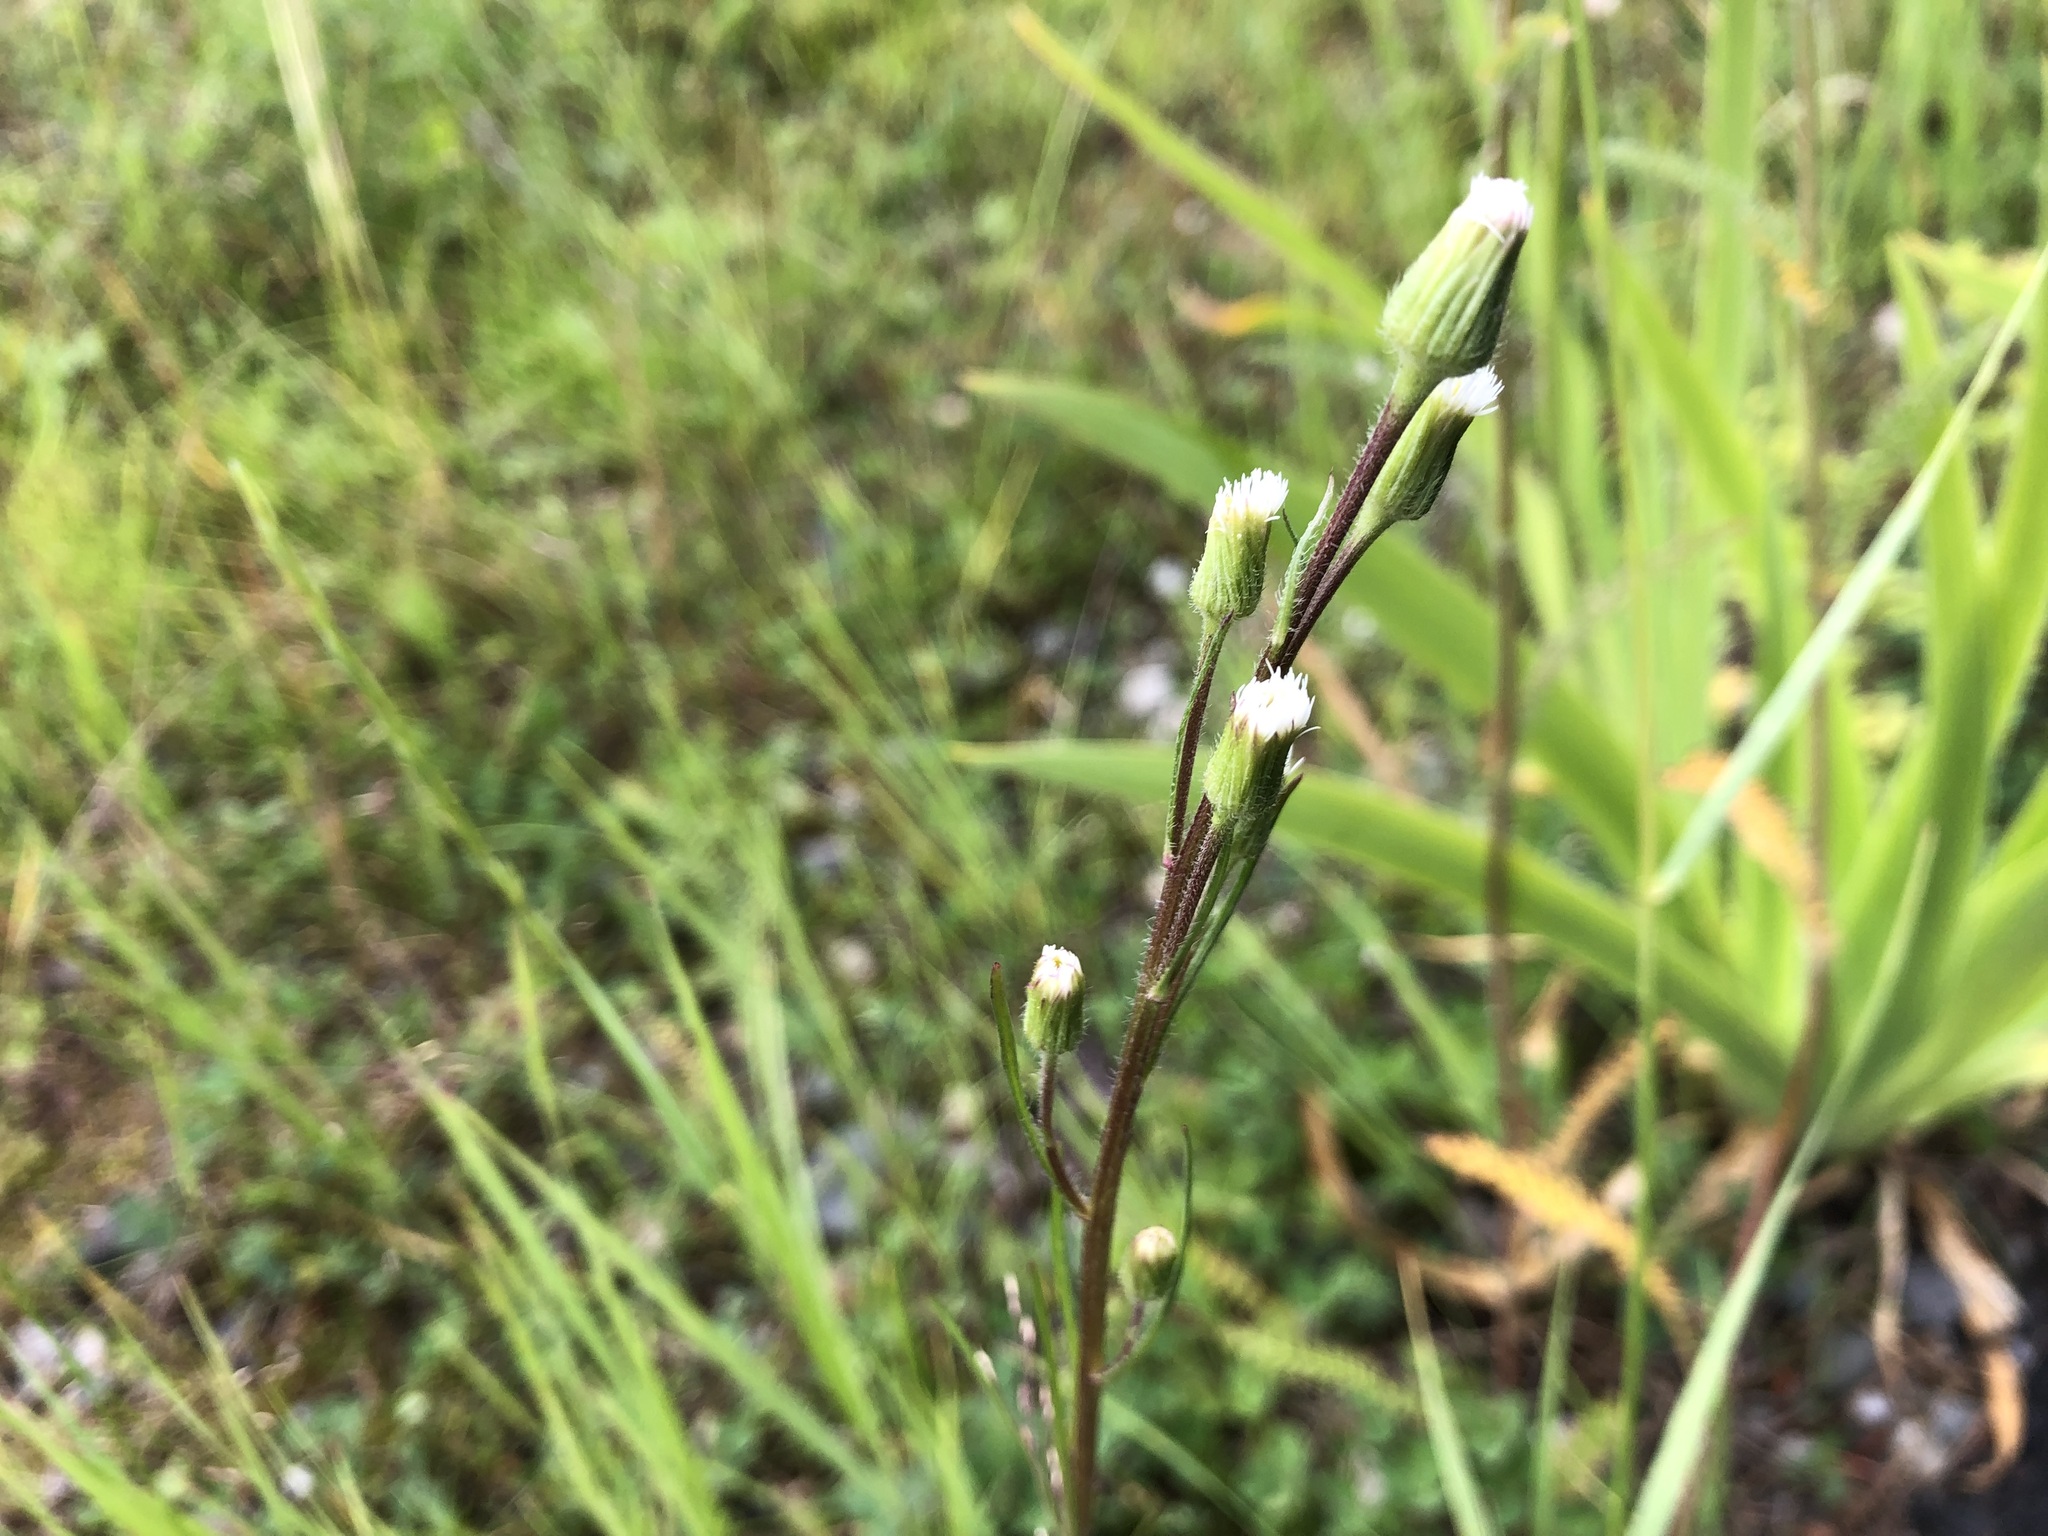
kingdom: Plantae
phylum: Tracheophyta
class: Magnoliopsida
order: Asterales
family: Asteraceae
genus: Erigeron
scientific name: Erigeron lonchophyllus
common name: Short-ray fleabane
